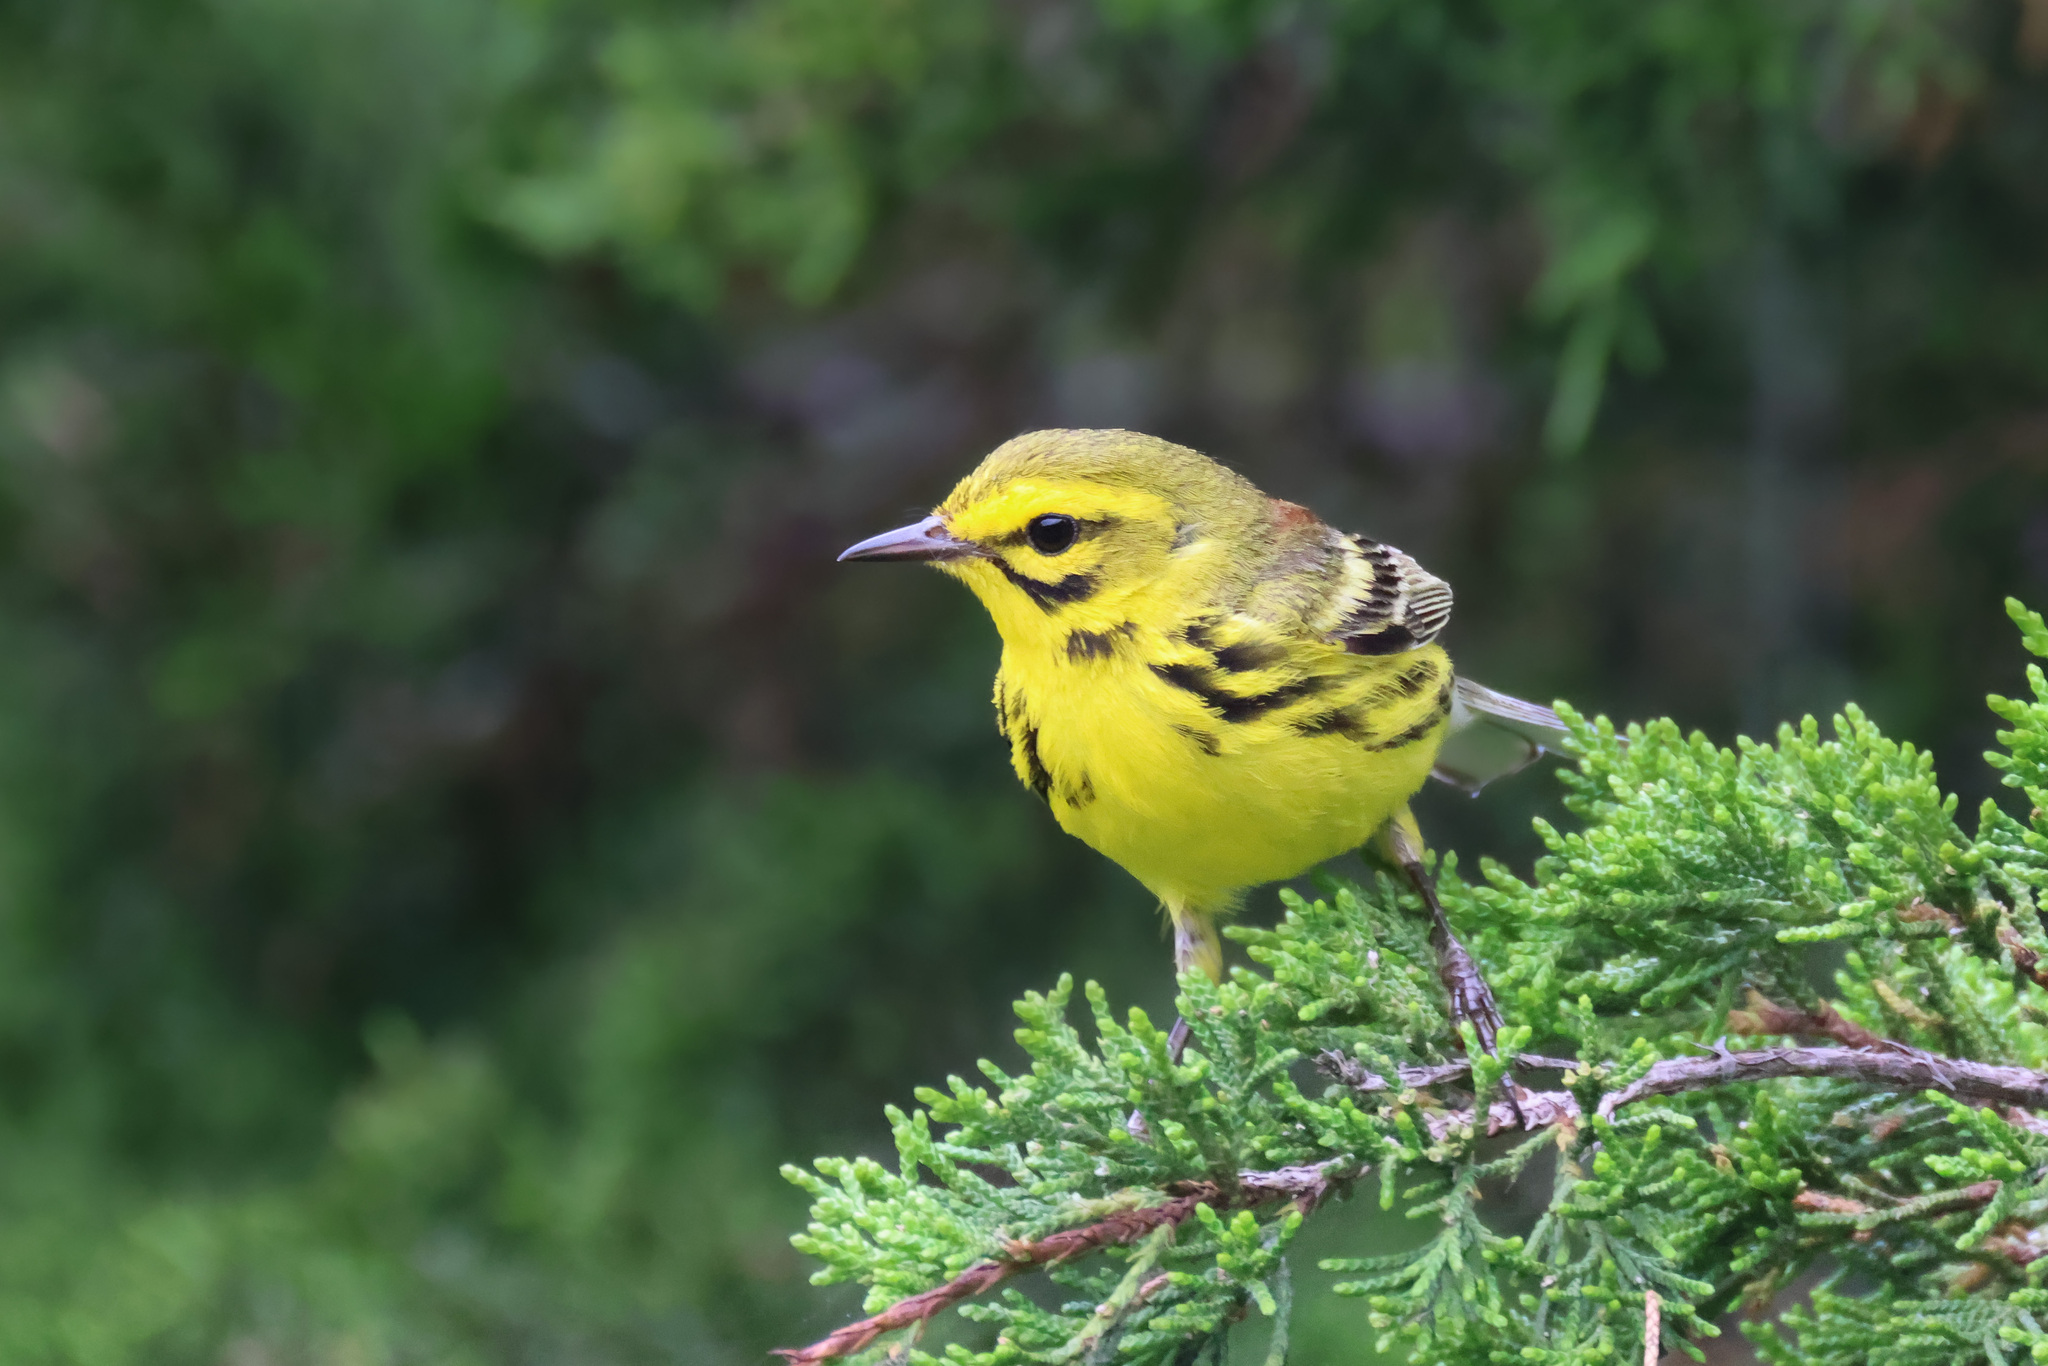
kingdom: Animalia
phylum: Chordata
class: Aves
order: Passeriformes
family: Parulidae
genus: Setophaga
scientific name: Setophaga discolor
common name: Prairie warbler
